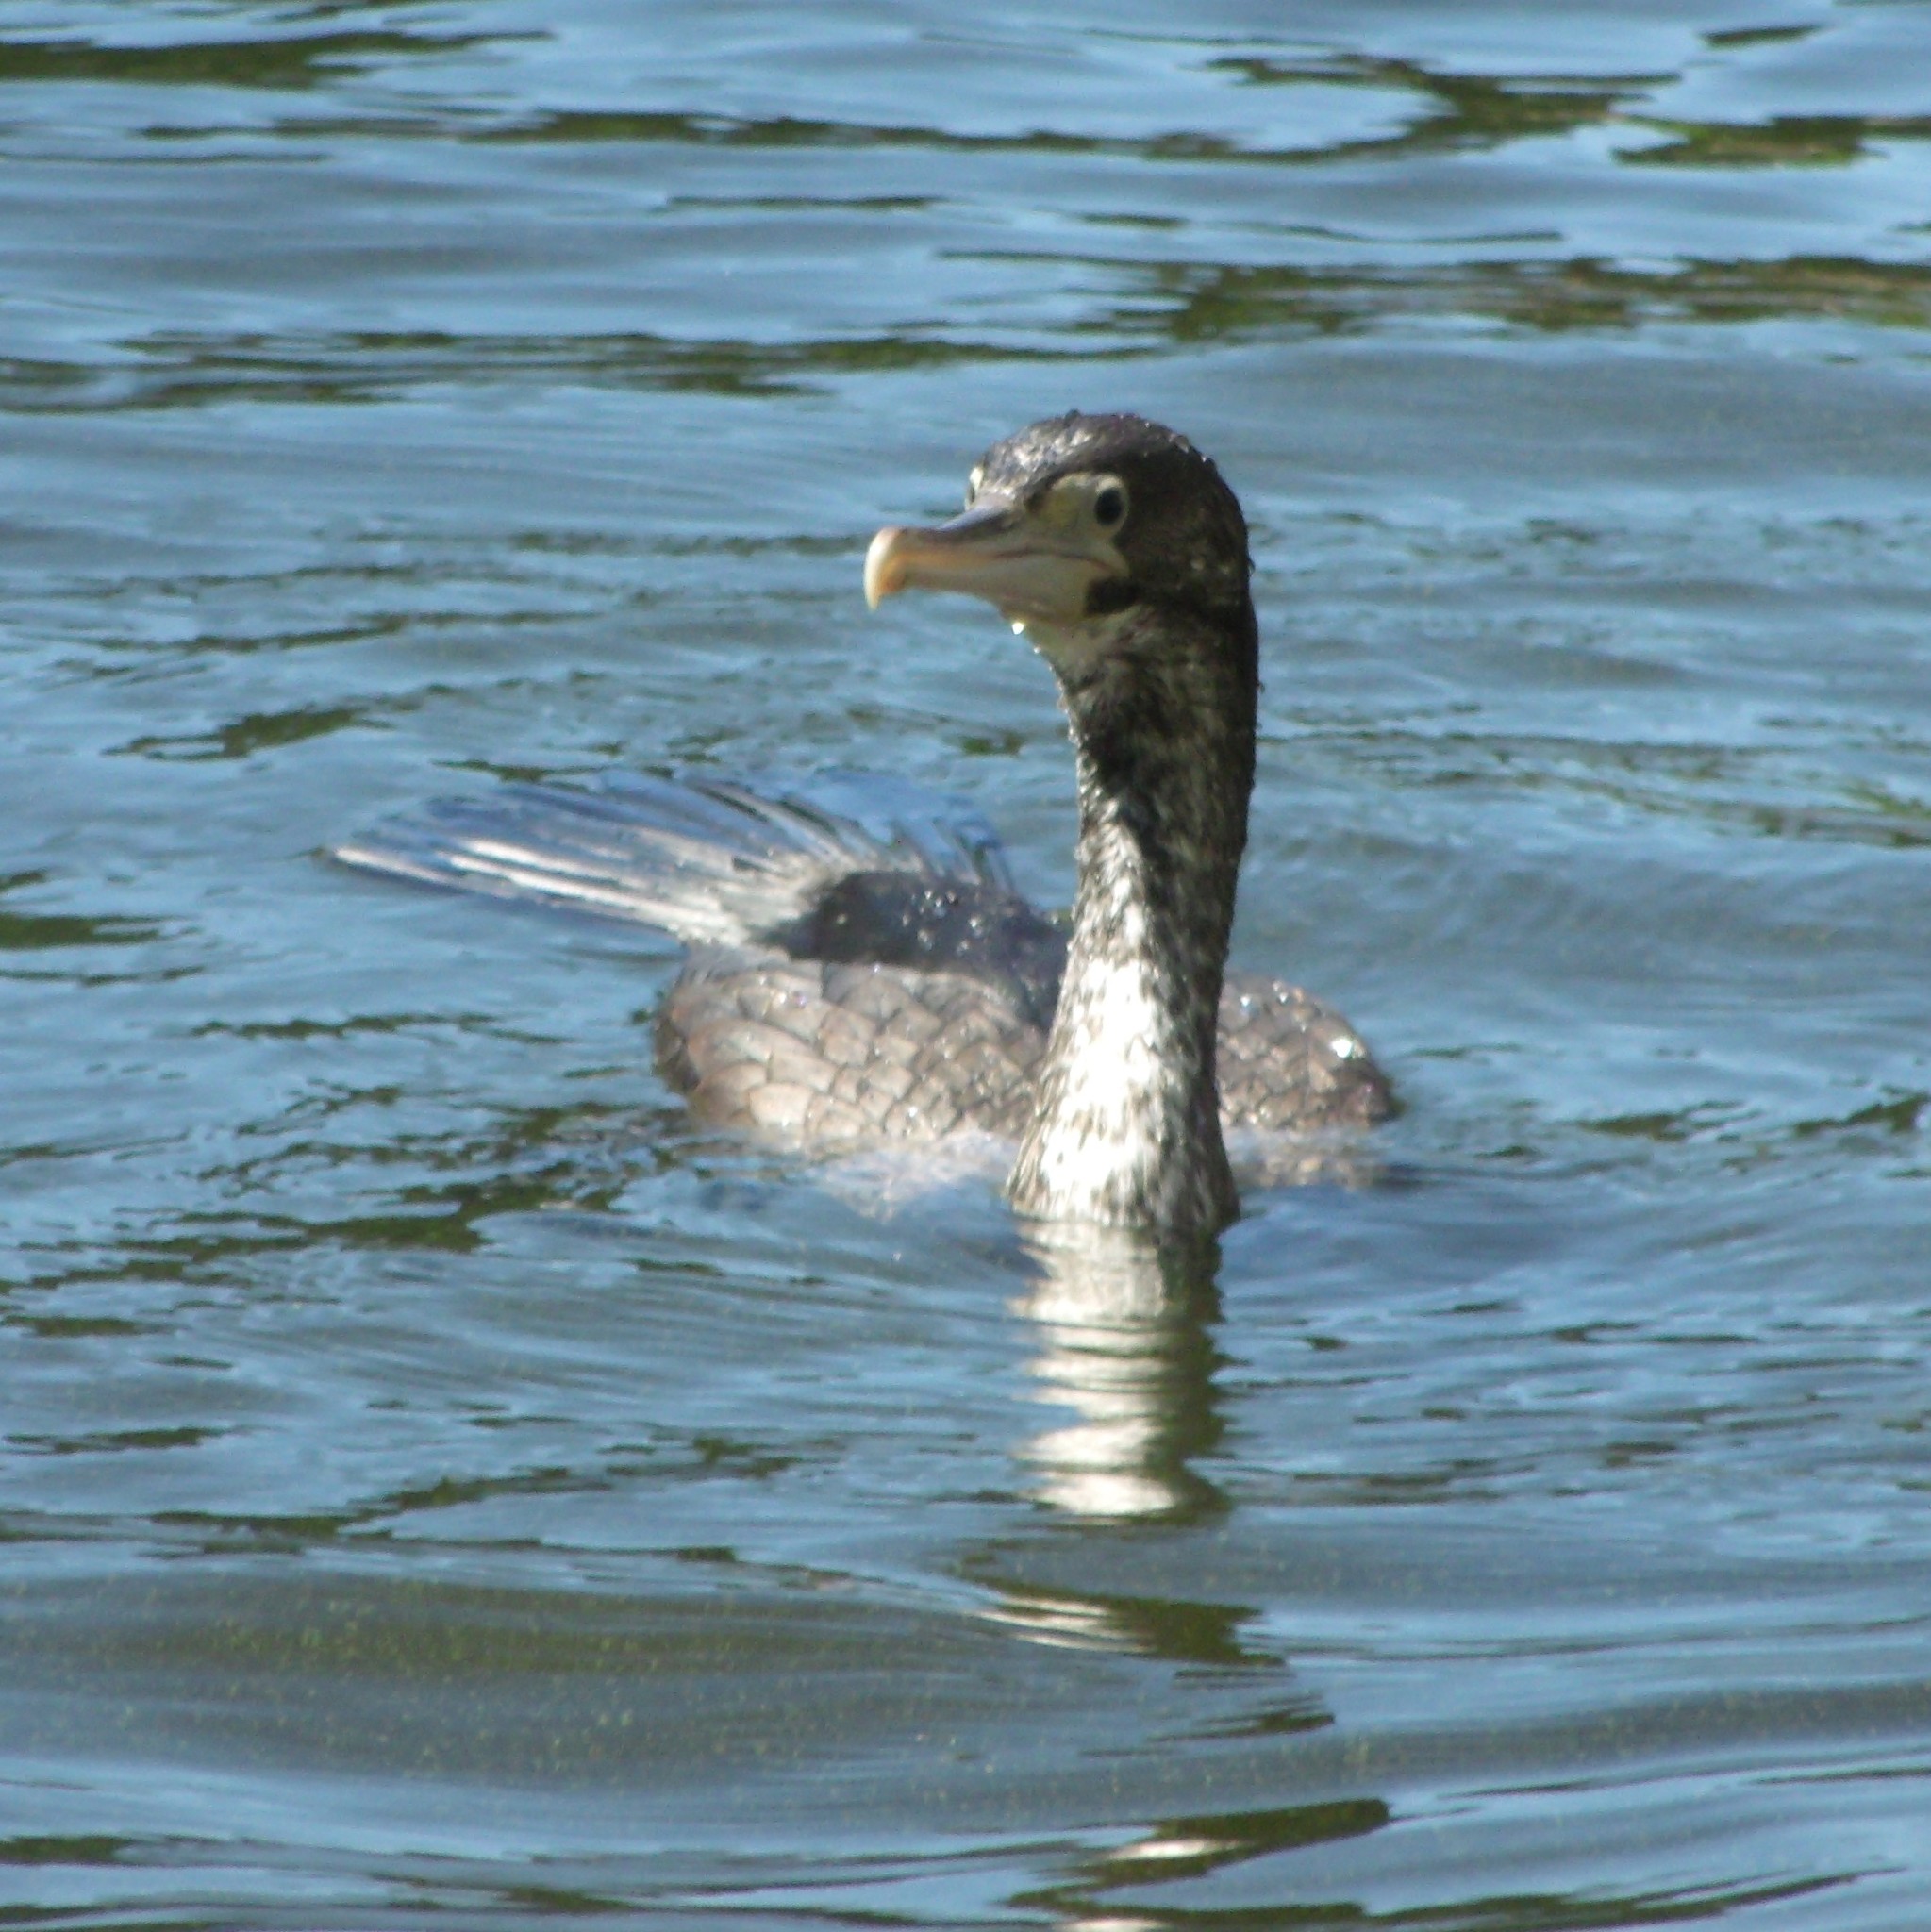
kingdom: Animalia
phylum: Chordata
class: Aves
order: Suliformes
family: Phalacrocoracidae
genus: Phalacrocorax
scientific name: Phalacrocorax varius
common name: Pied cormorant
